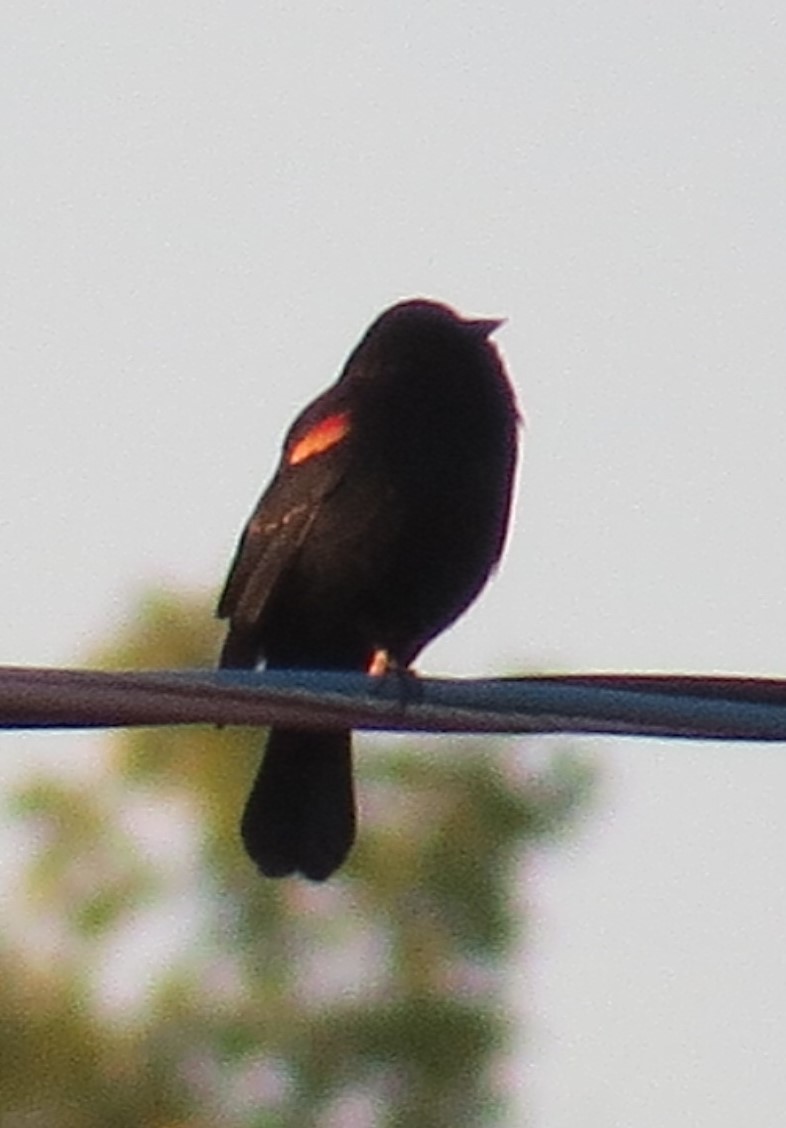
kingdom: Animalia
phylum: Chordata
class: Aves
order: Passeriformes
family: Icteridae
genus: Agelaius
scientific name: Agelaius phoeniceus
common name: Red-winged blackbird
